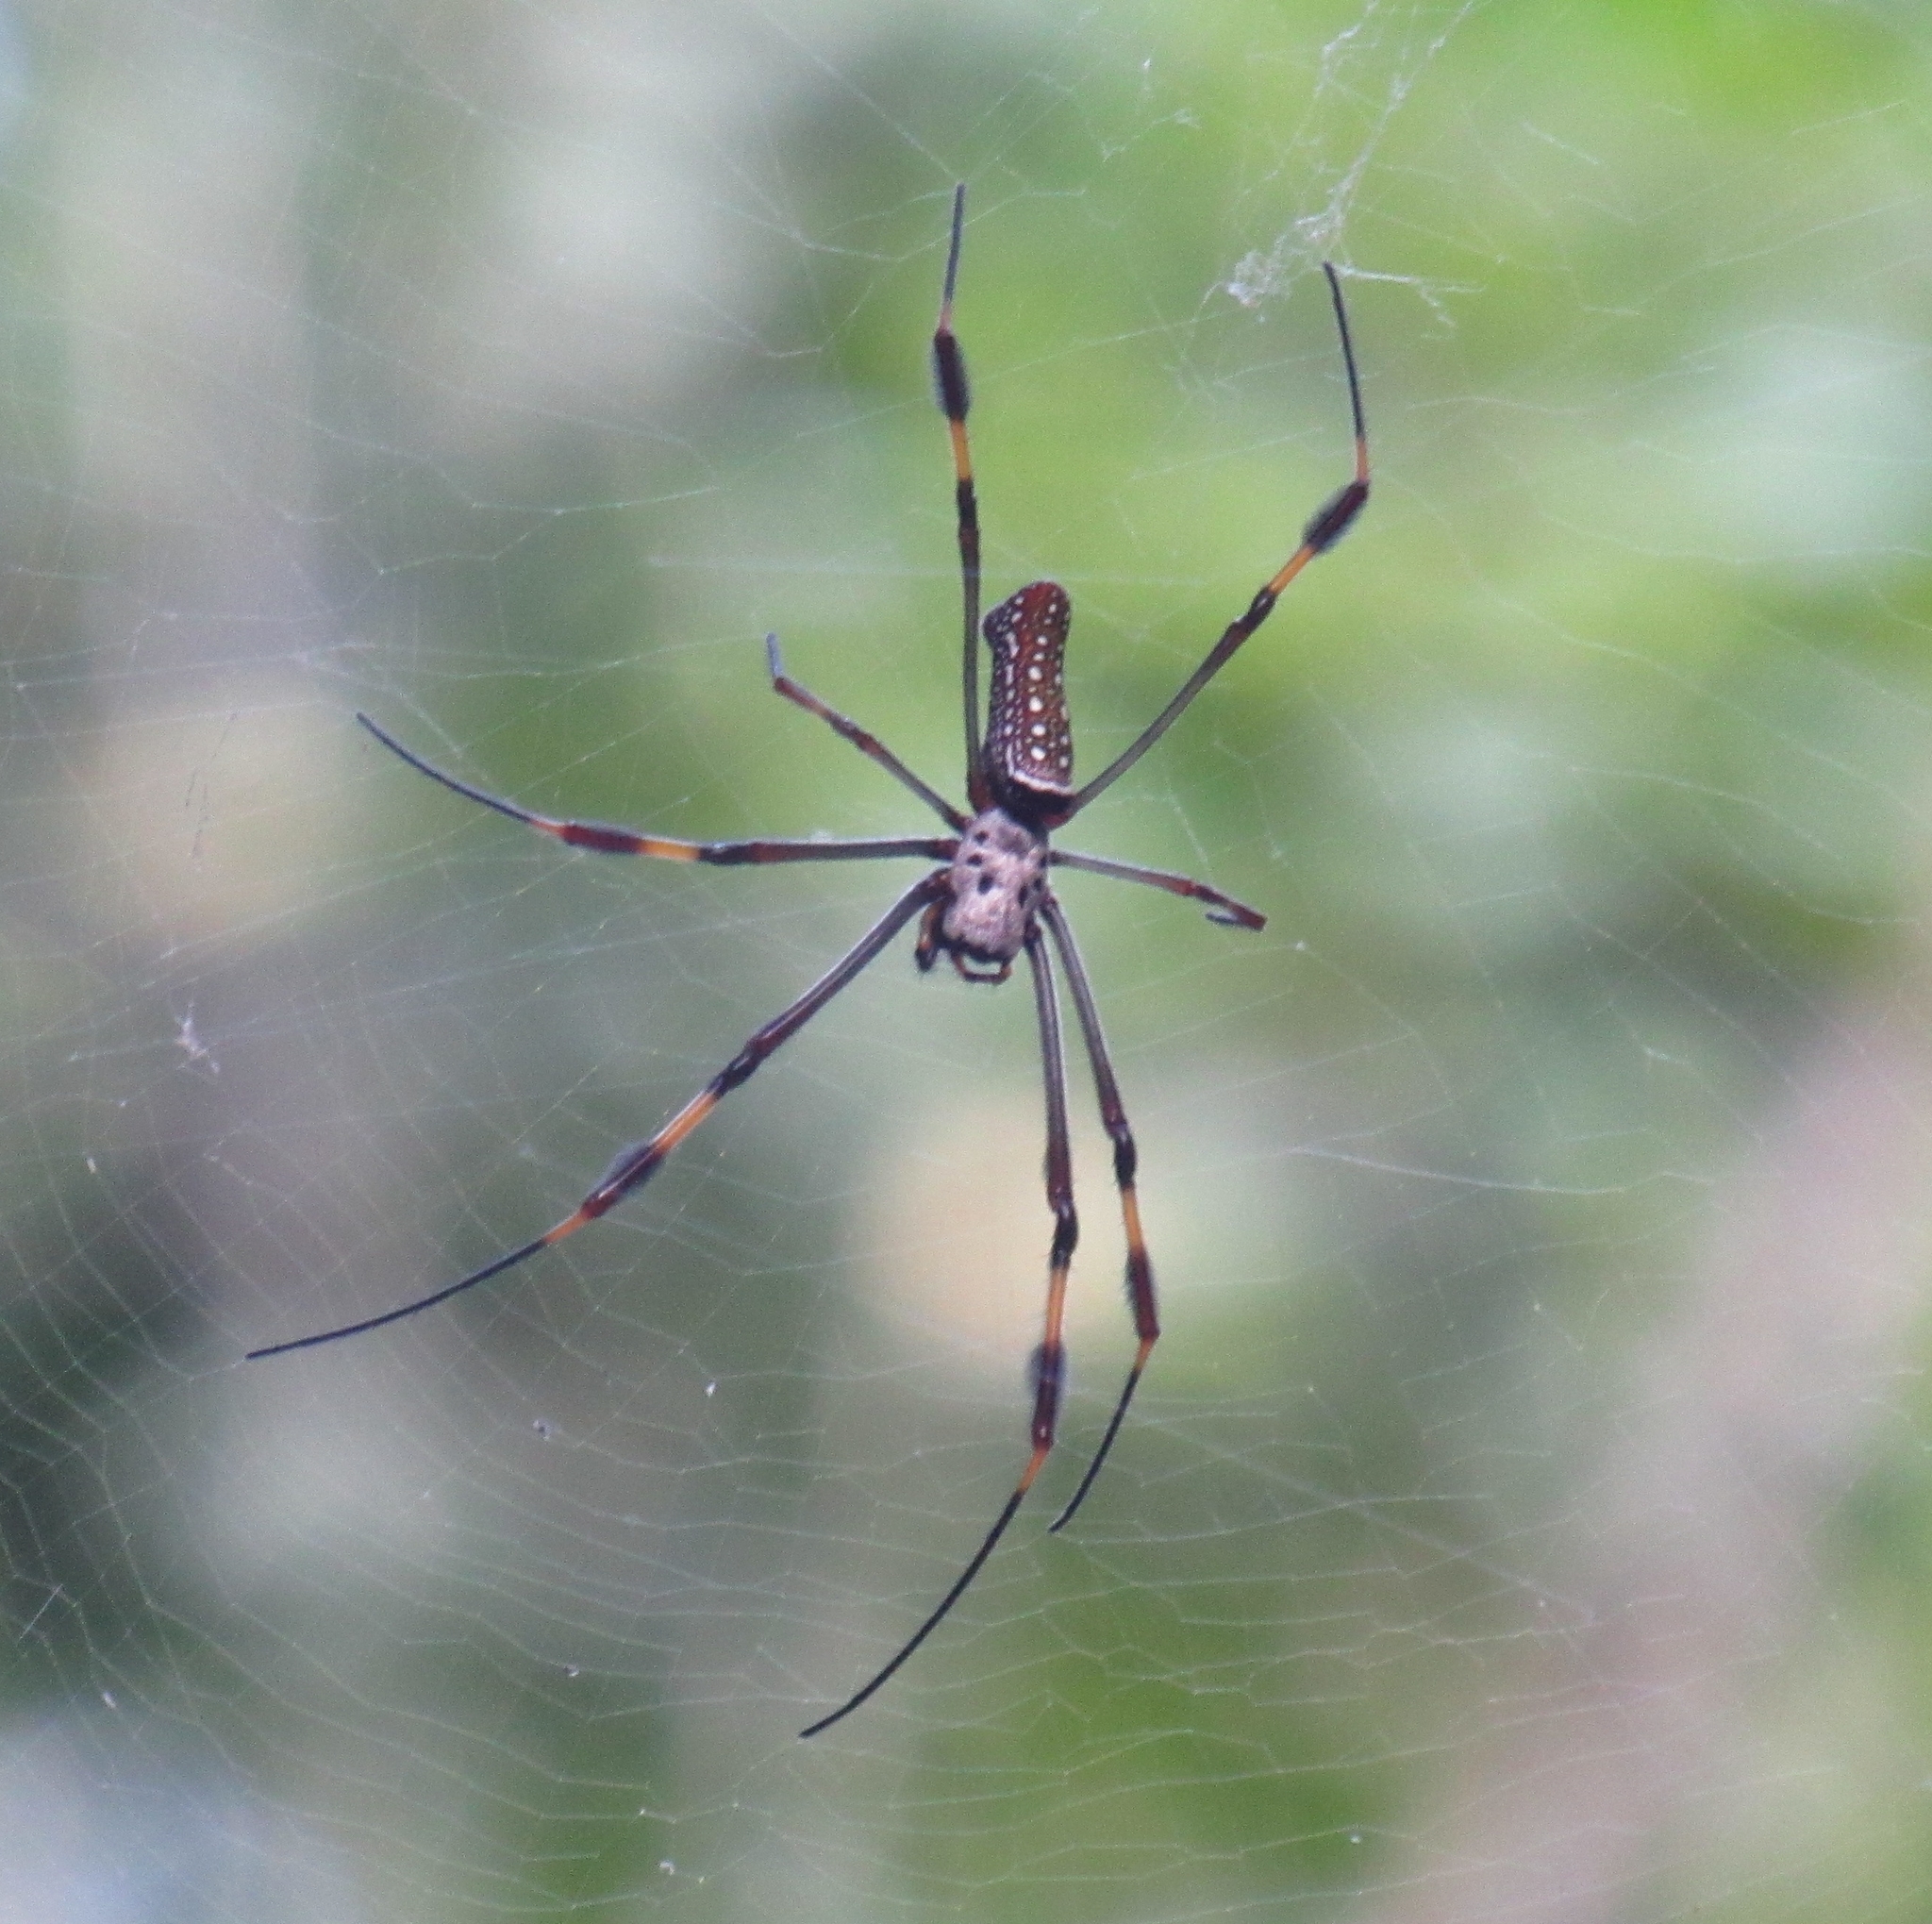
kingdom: Animalia
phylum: Arthropoda
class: Arachnida
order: Araneae
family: Araneidae
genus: Trichonephila
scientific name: Trichonephila clavipes
